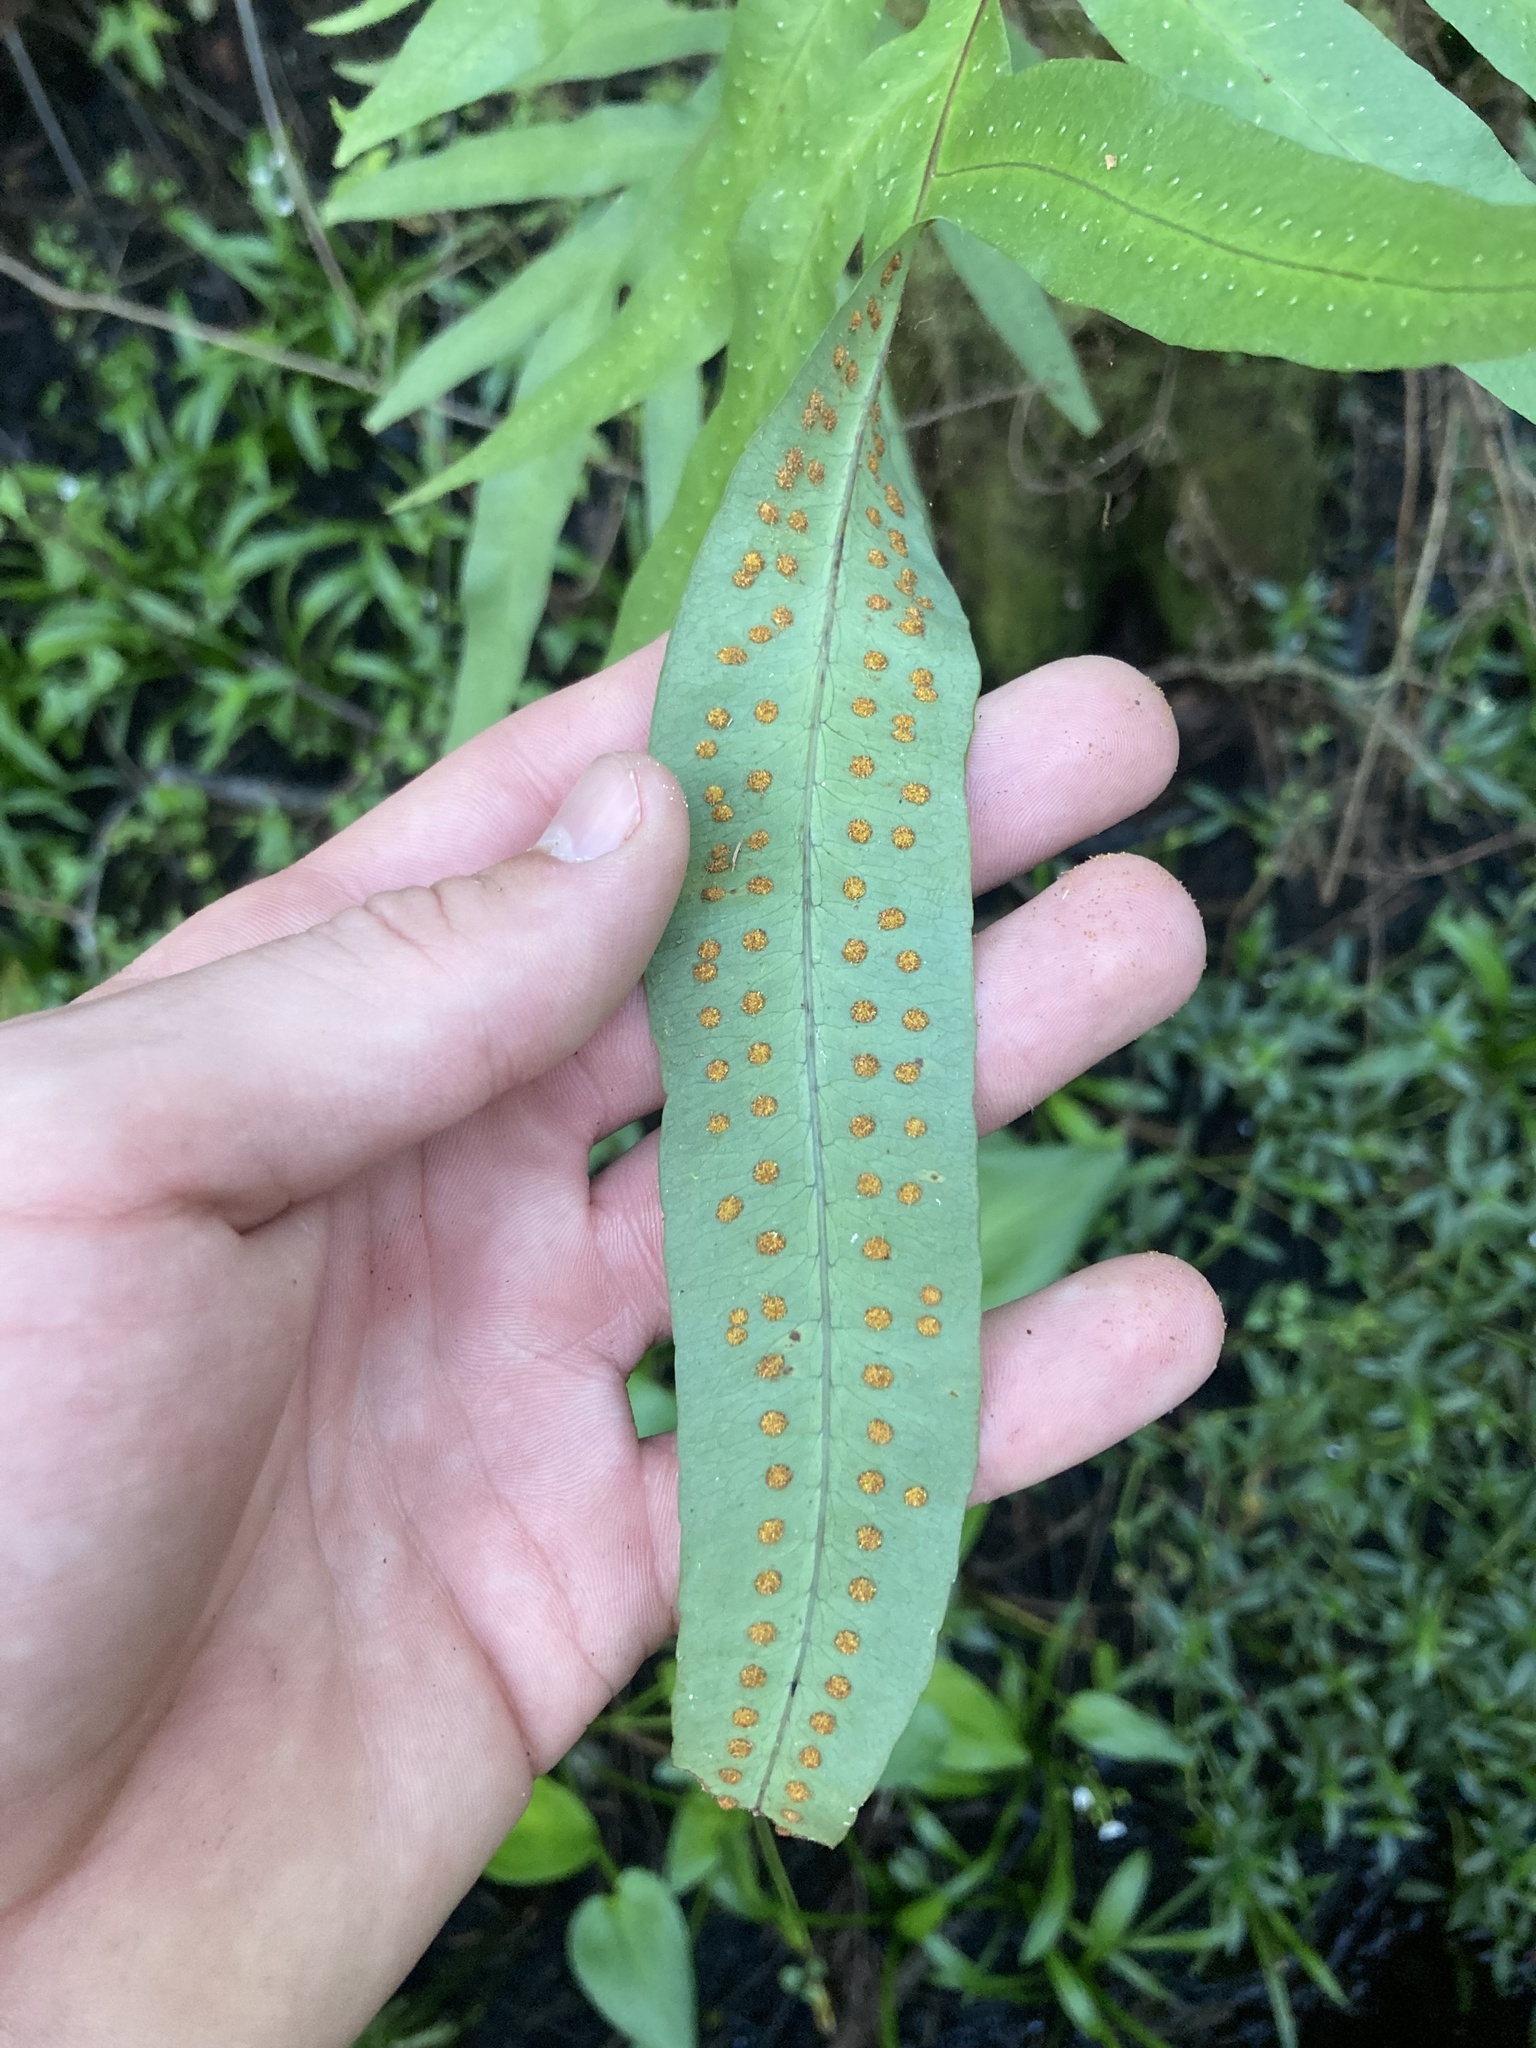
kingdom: Plantae
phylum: Tracheophyta
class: Polypodiopsida
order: Polypodiales
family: Polypodiaceae
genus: Phlebodium
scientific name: Phlebodium aureum
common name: Gold-foot fern
